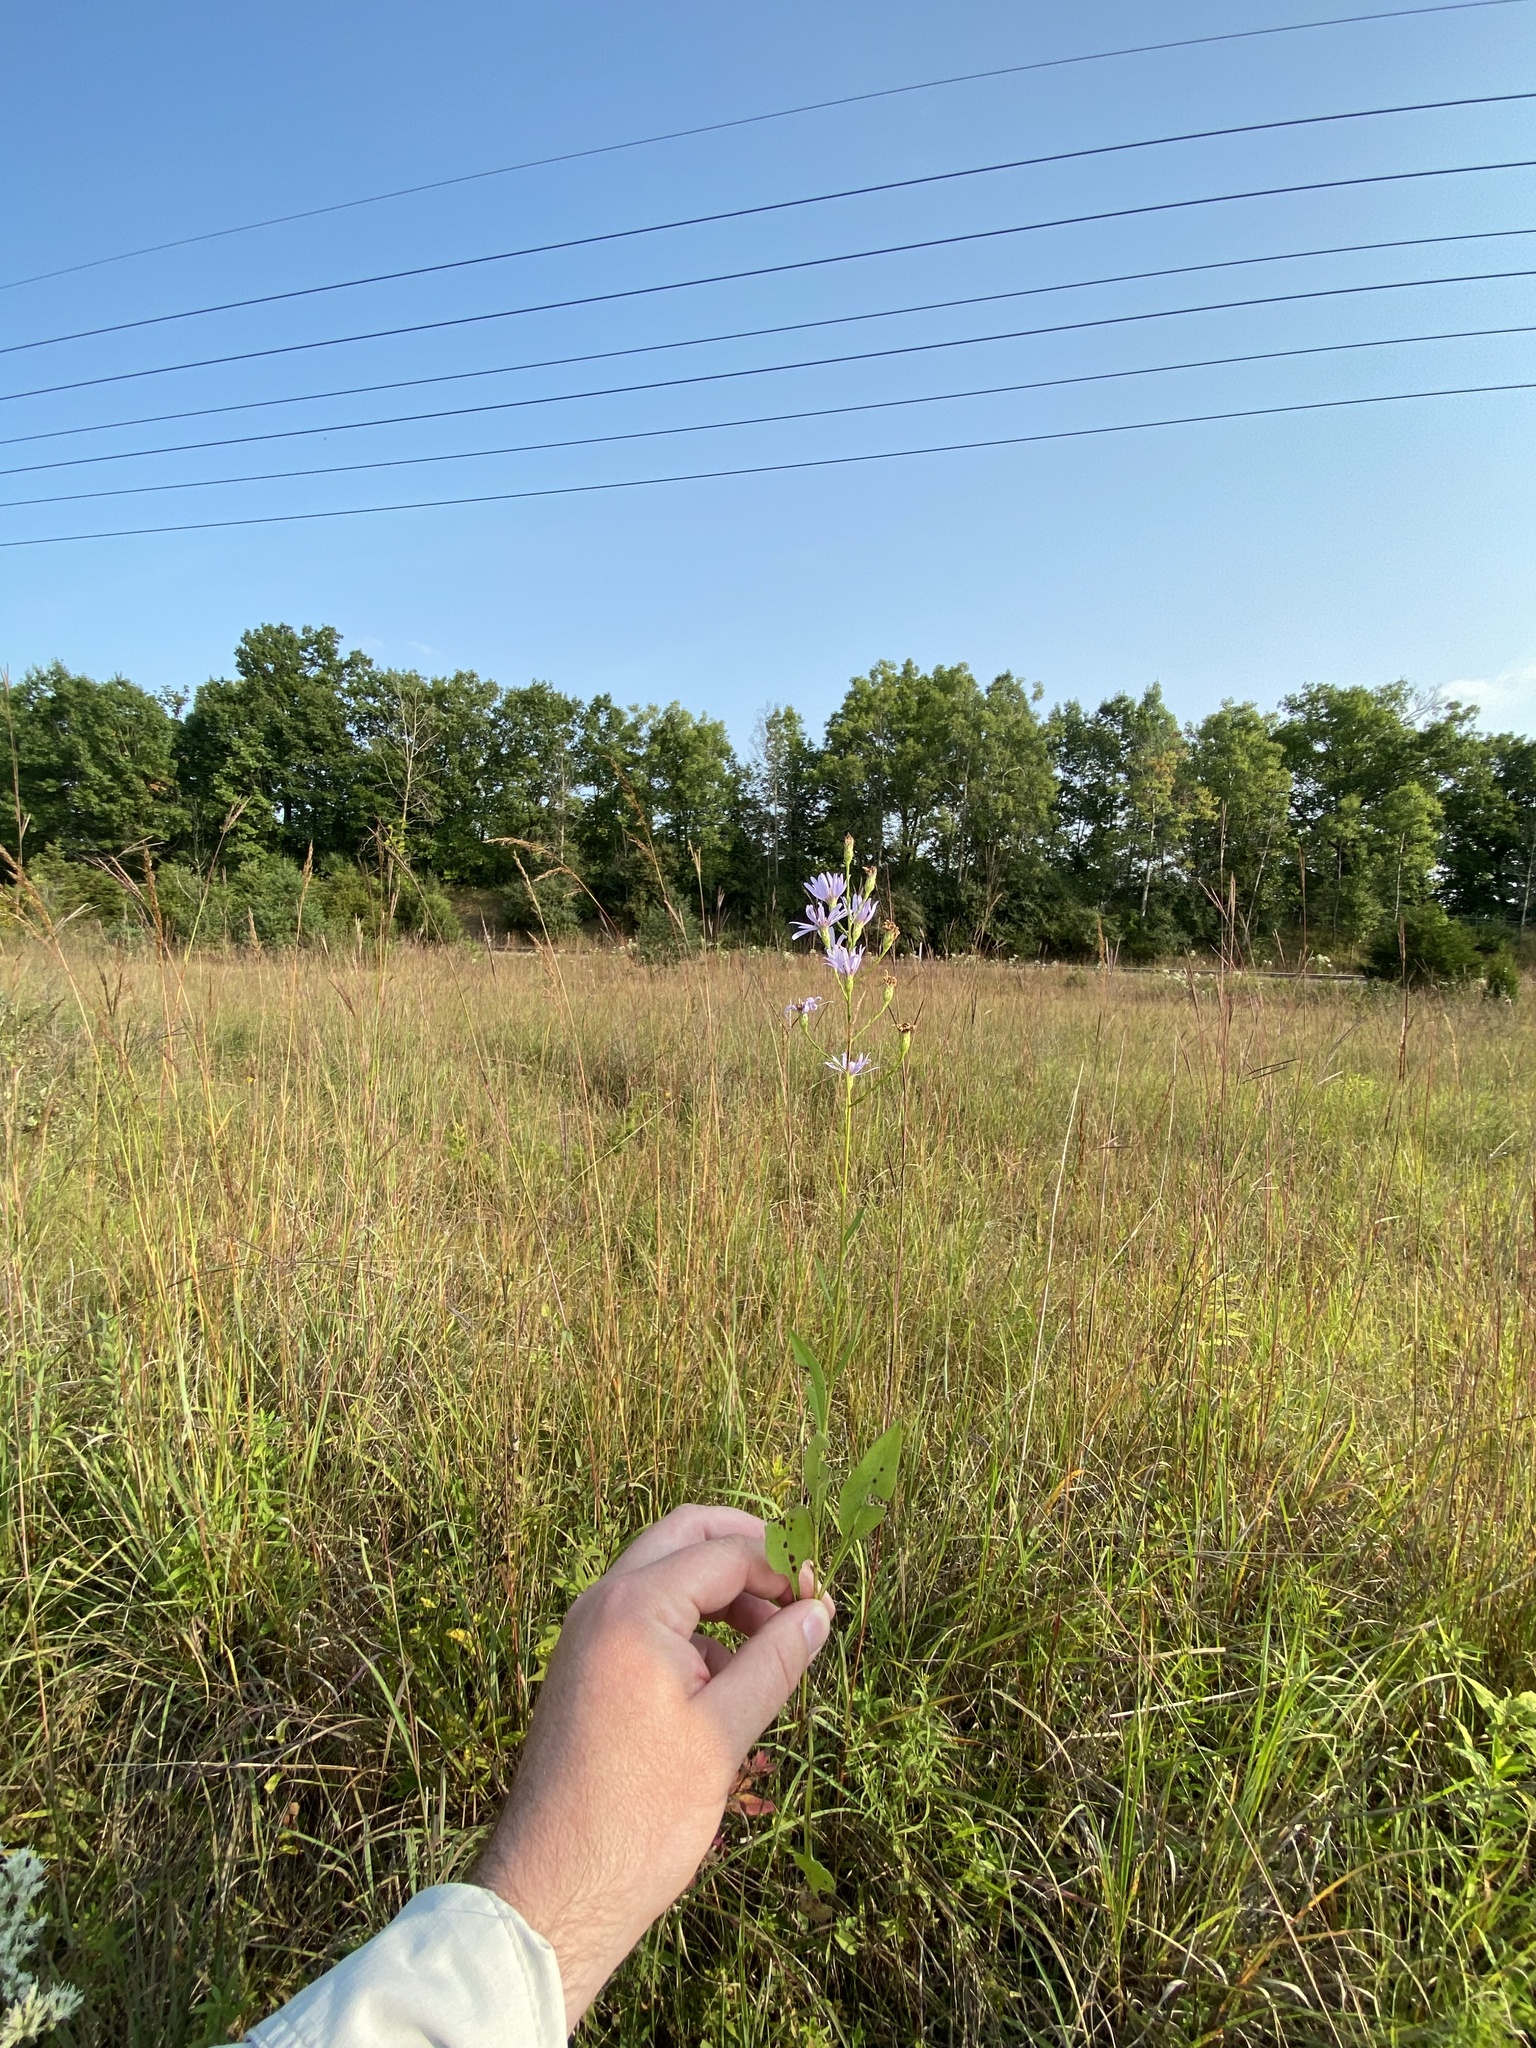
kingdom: Plantae
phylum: Tracheophyta
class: Magnoliopsida
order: Asterales
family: Asteraceae
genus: Symphyotrichum
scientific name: Symphyotrichum oolentangiense
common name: Azure aster
